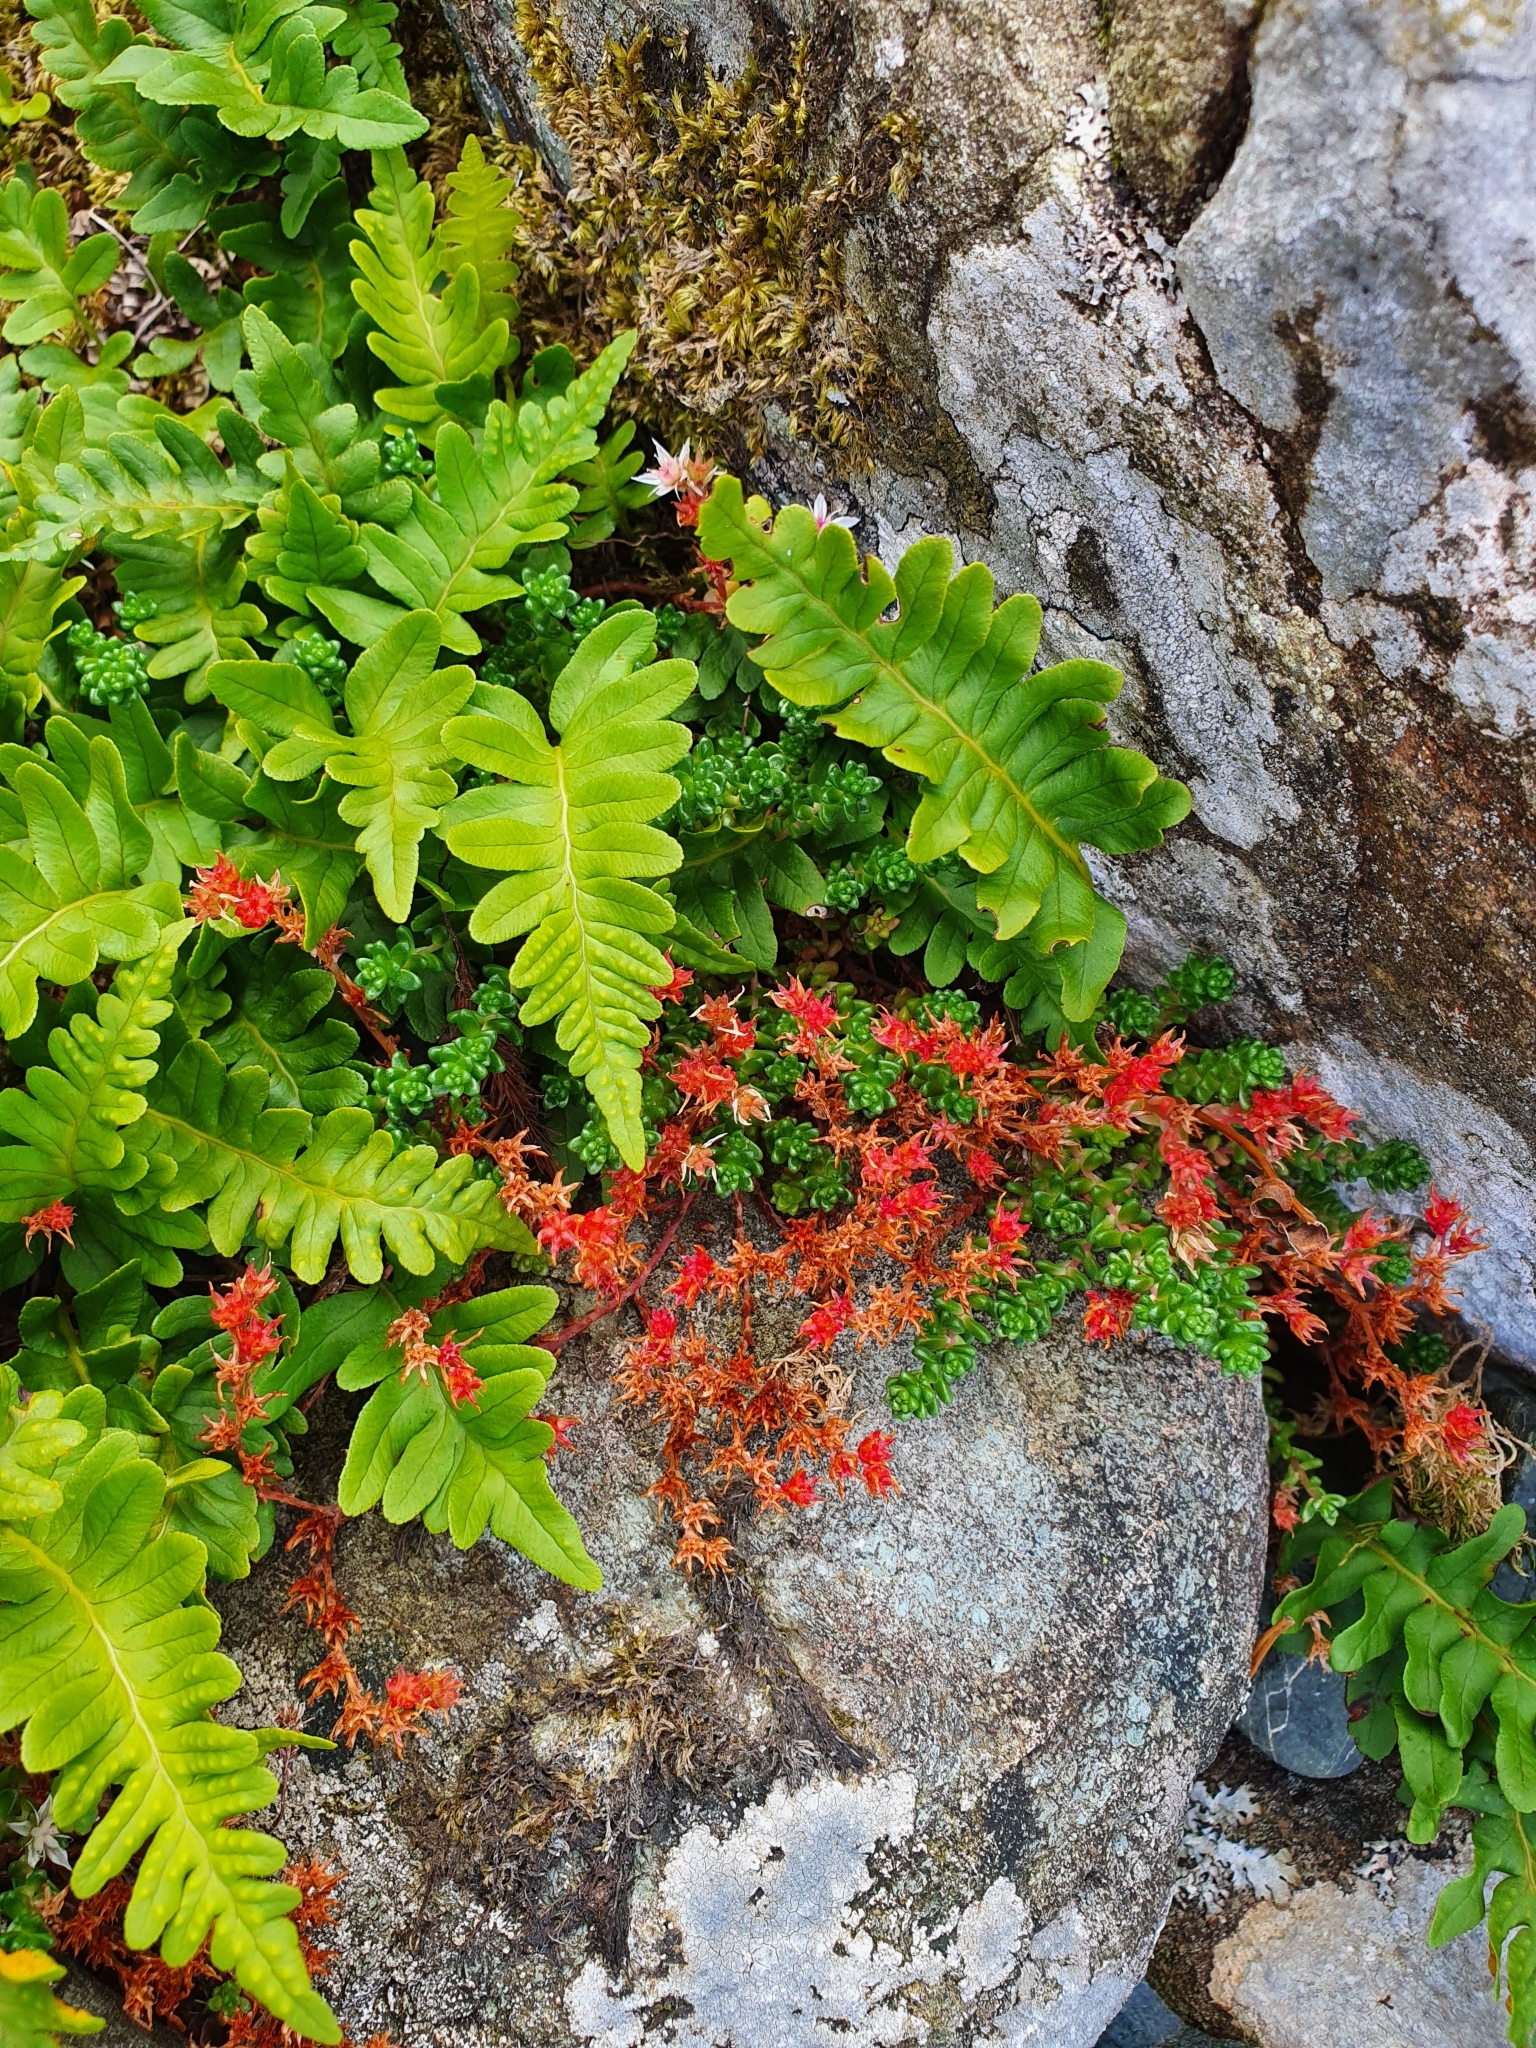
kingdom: Plantae
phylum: Tracheophyta
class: Polypodiopsida
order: Polypodiales
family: Polypodiaceae
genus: Polypodium
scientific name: Polypodium vulgare
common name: Common polypody
